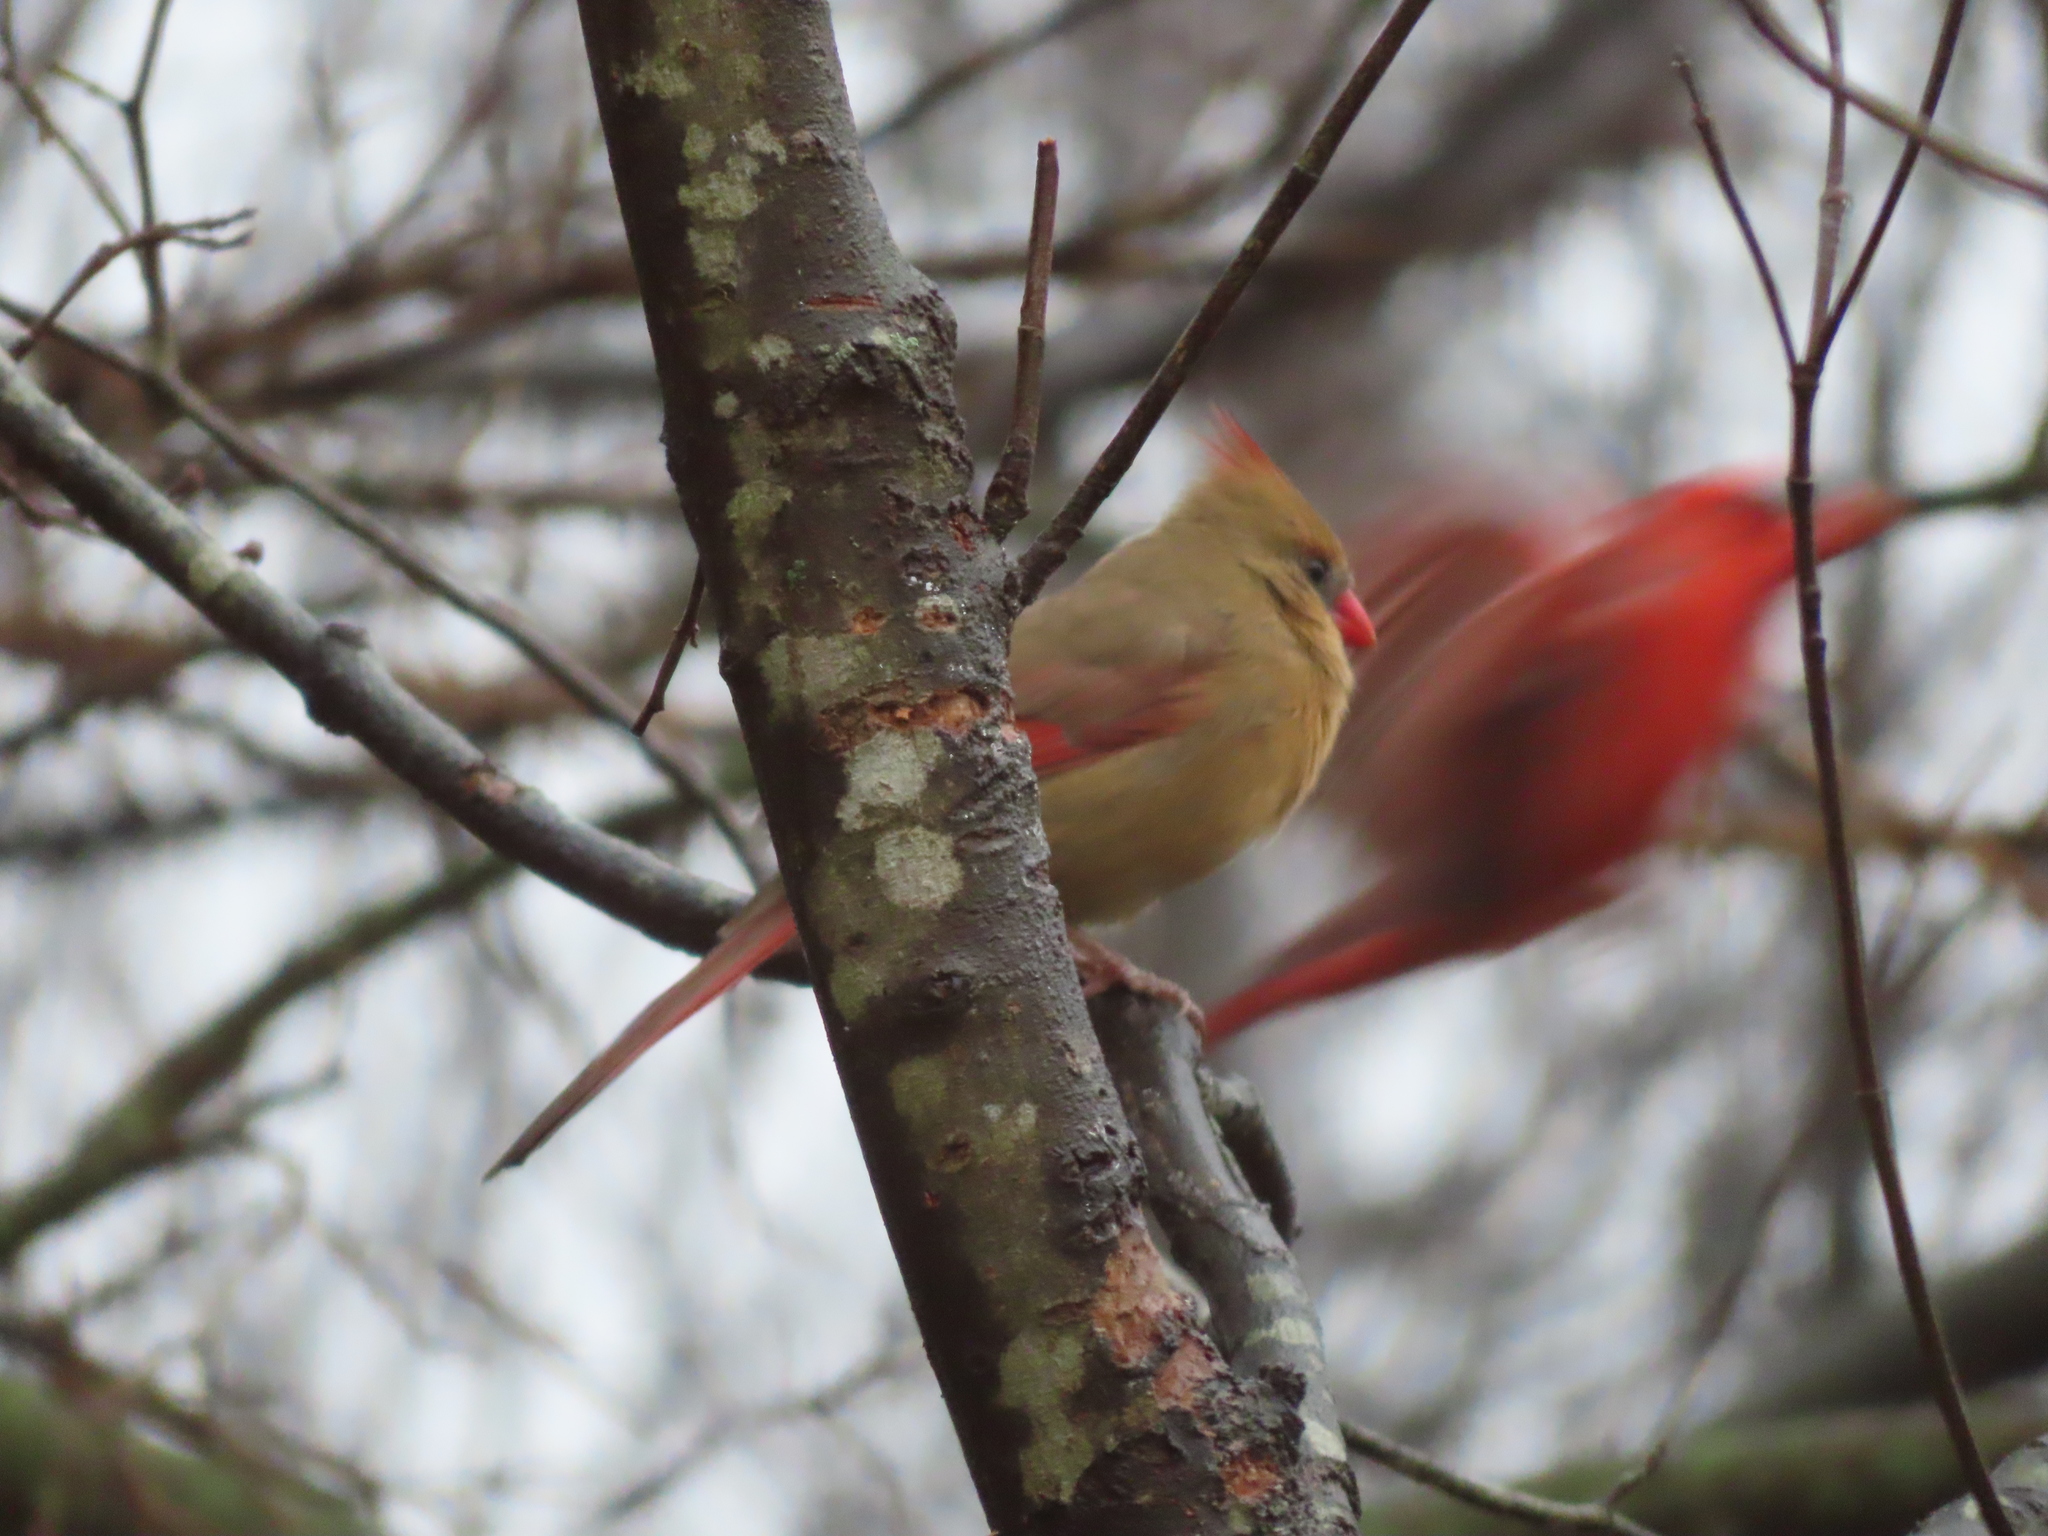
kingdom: Animalia
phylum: Chordata
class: Aves
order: Passeriformes
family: Cardinalidae
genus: Cardinalis
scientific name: Cardinalis cardinalis
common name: Northern cardinal
